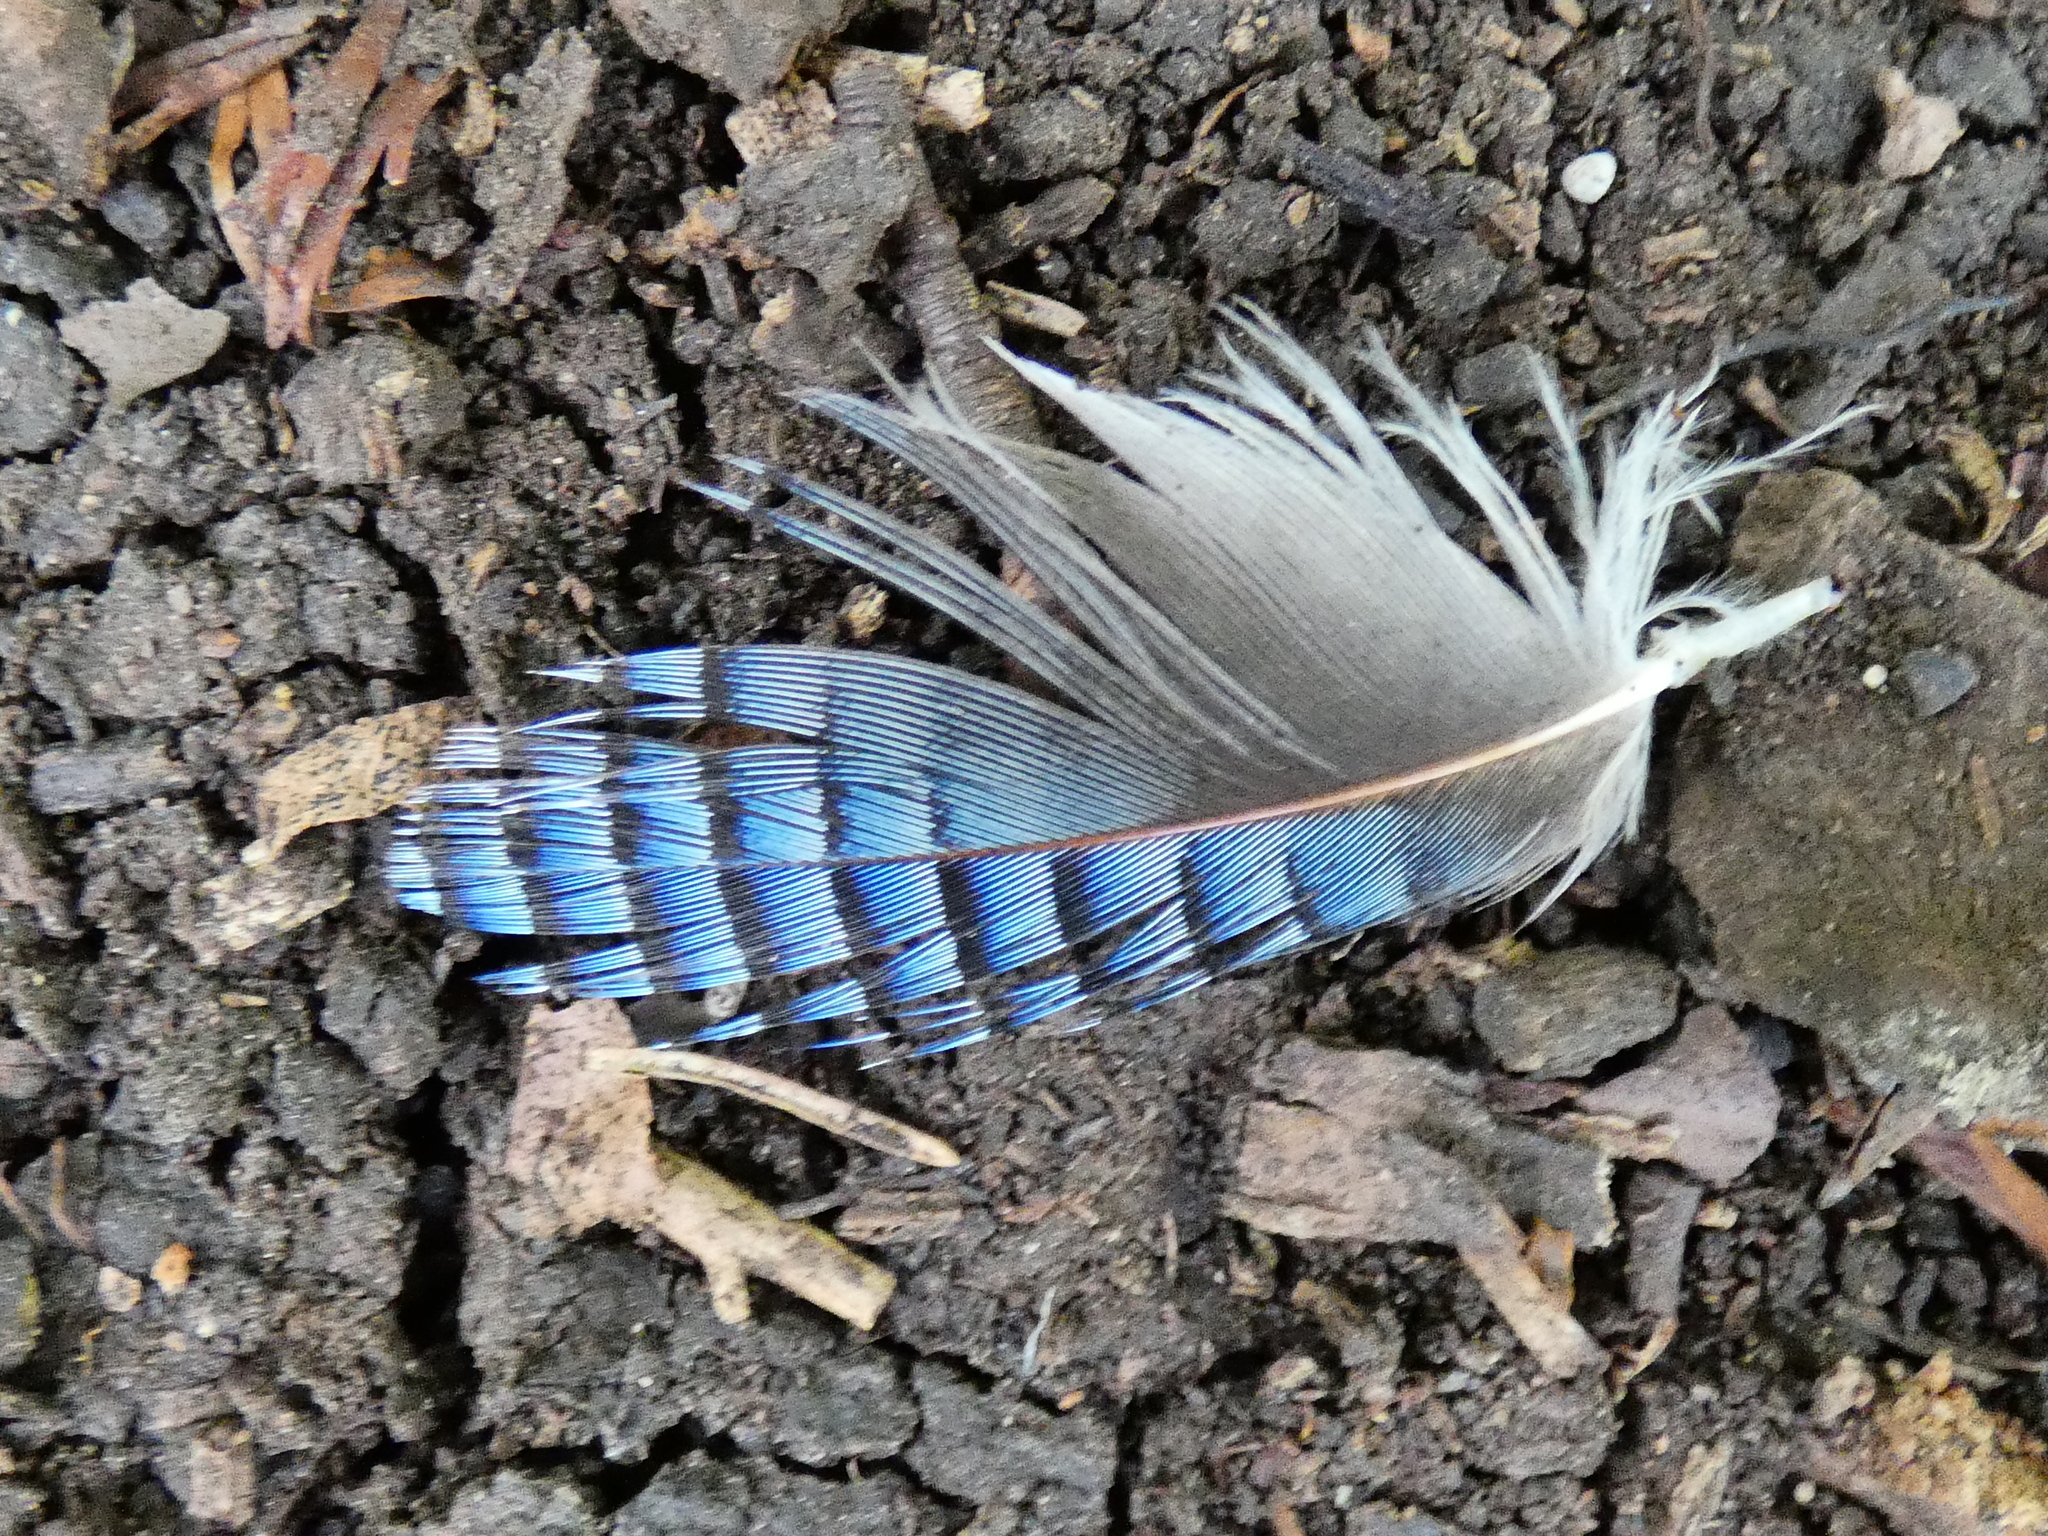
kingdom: Animalia
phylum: Chordata
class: Aves
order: Passeriformes
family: Corvidae
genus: Garrulus
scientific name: Garrulus glandarius
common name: Eurasian jay
